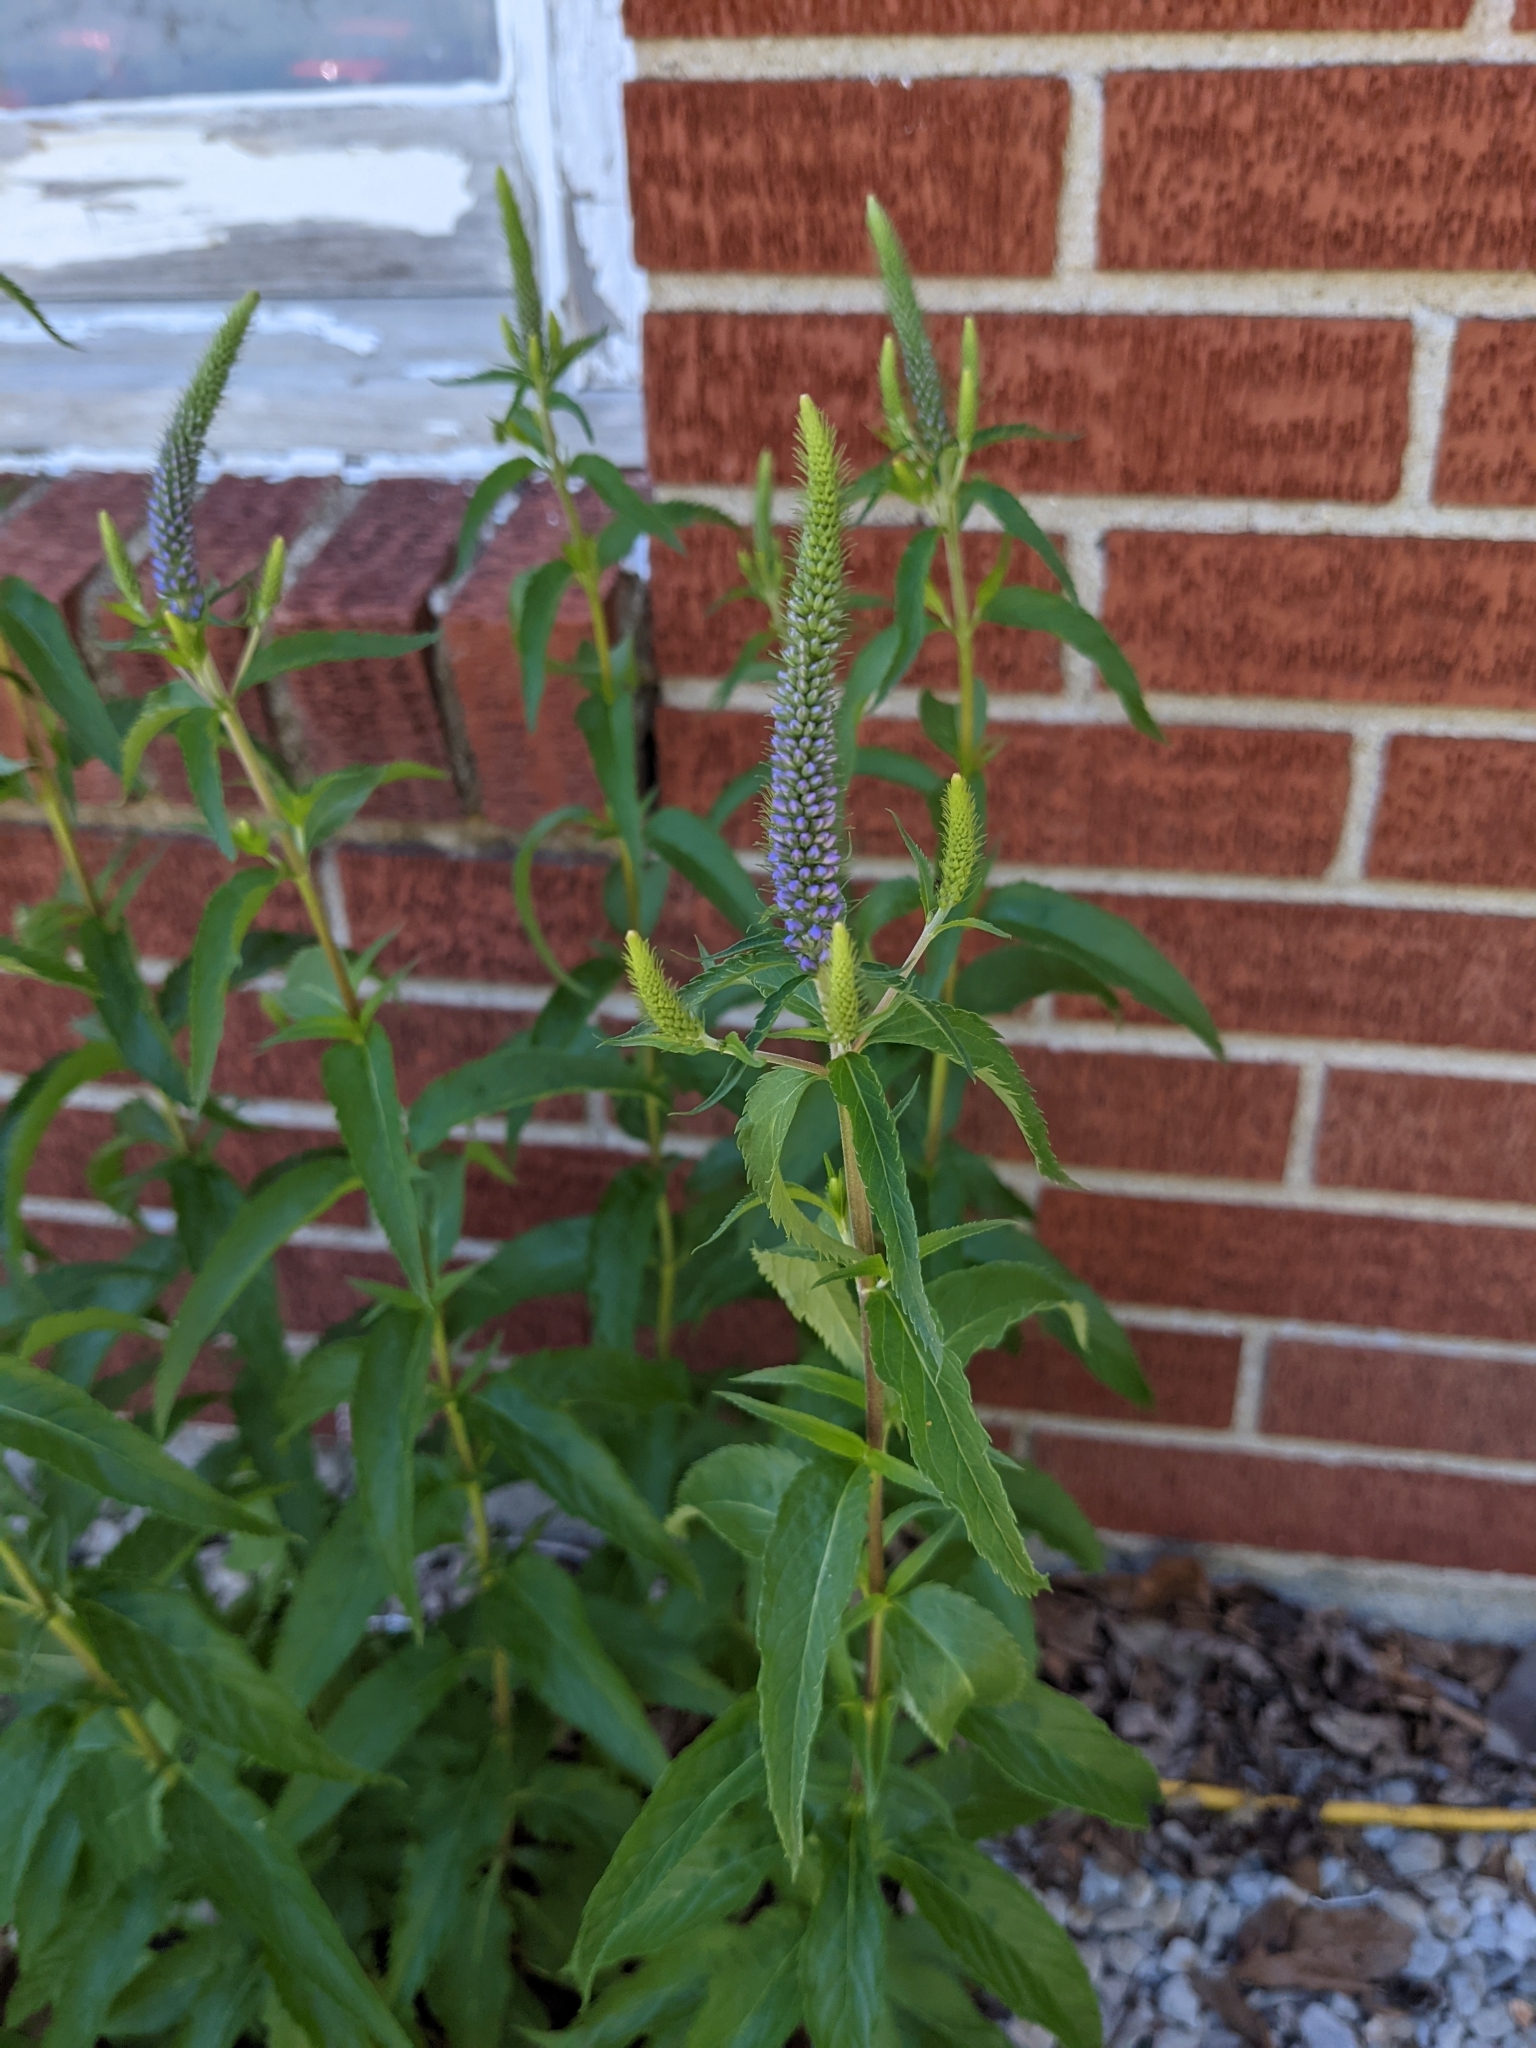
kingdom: Plantae
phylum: Tracheophyta
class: Magnoliopsida
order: Lamiales
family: Plantaginaceae
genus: Veronica
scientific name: Veronica longifolia
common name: Garden speedwell
